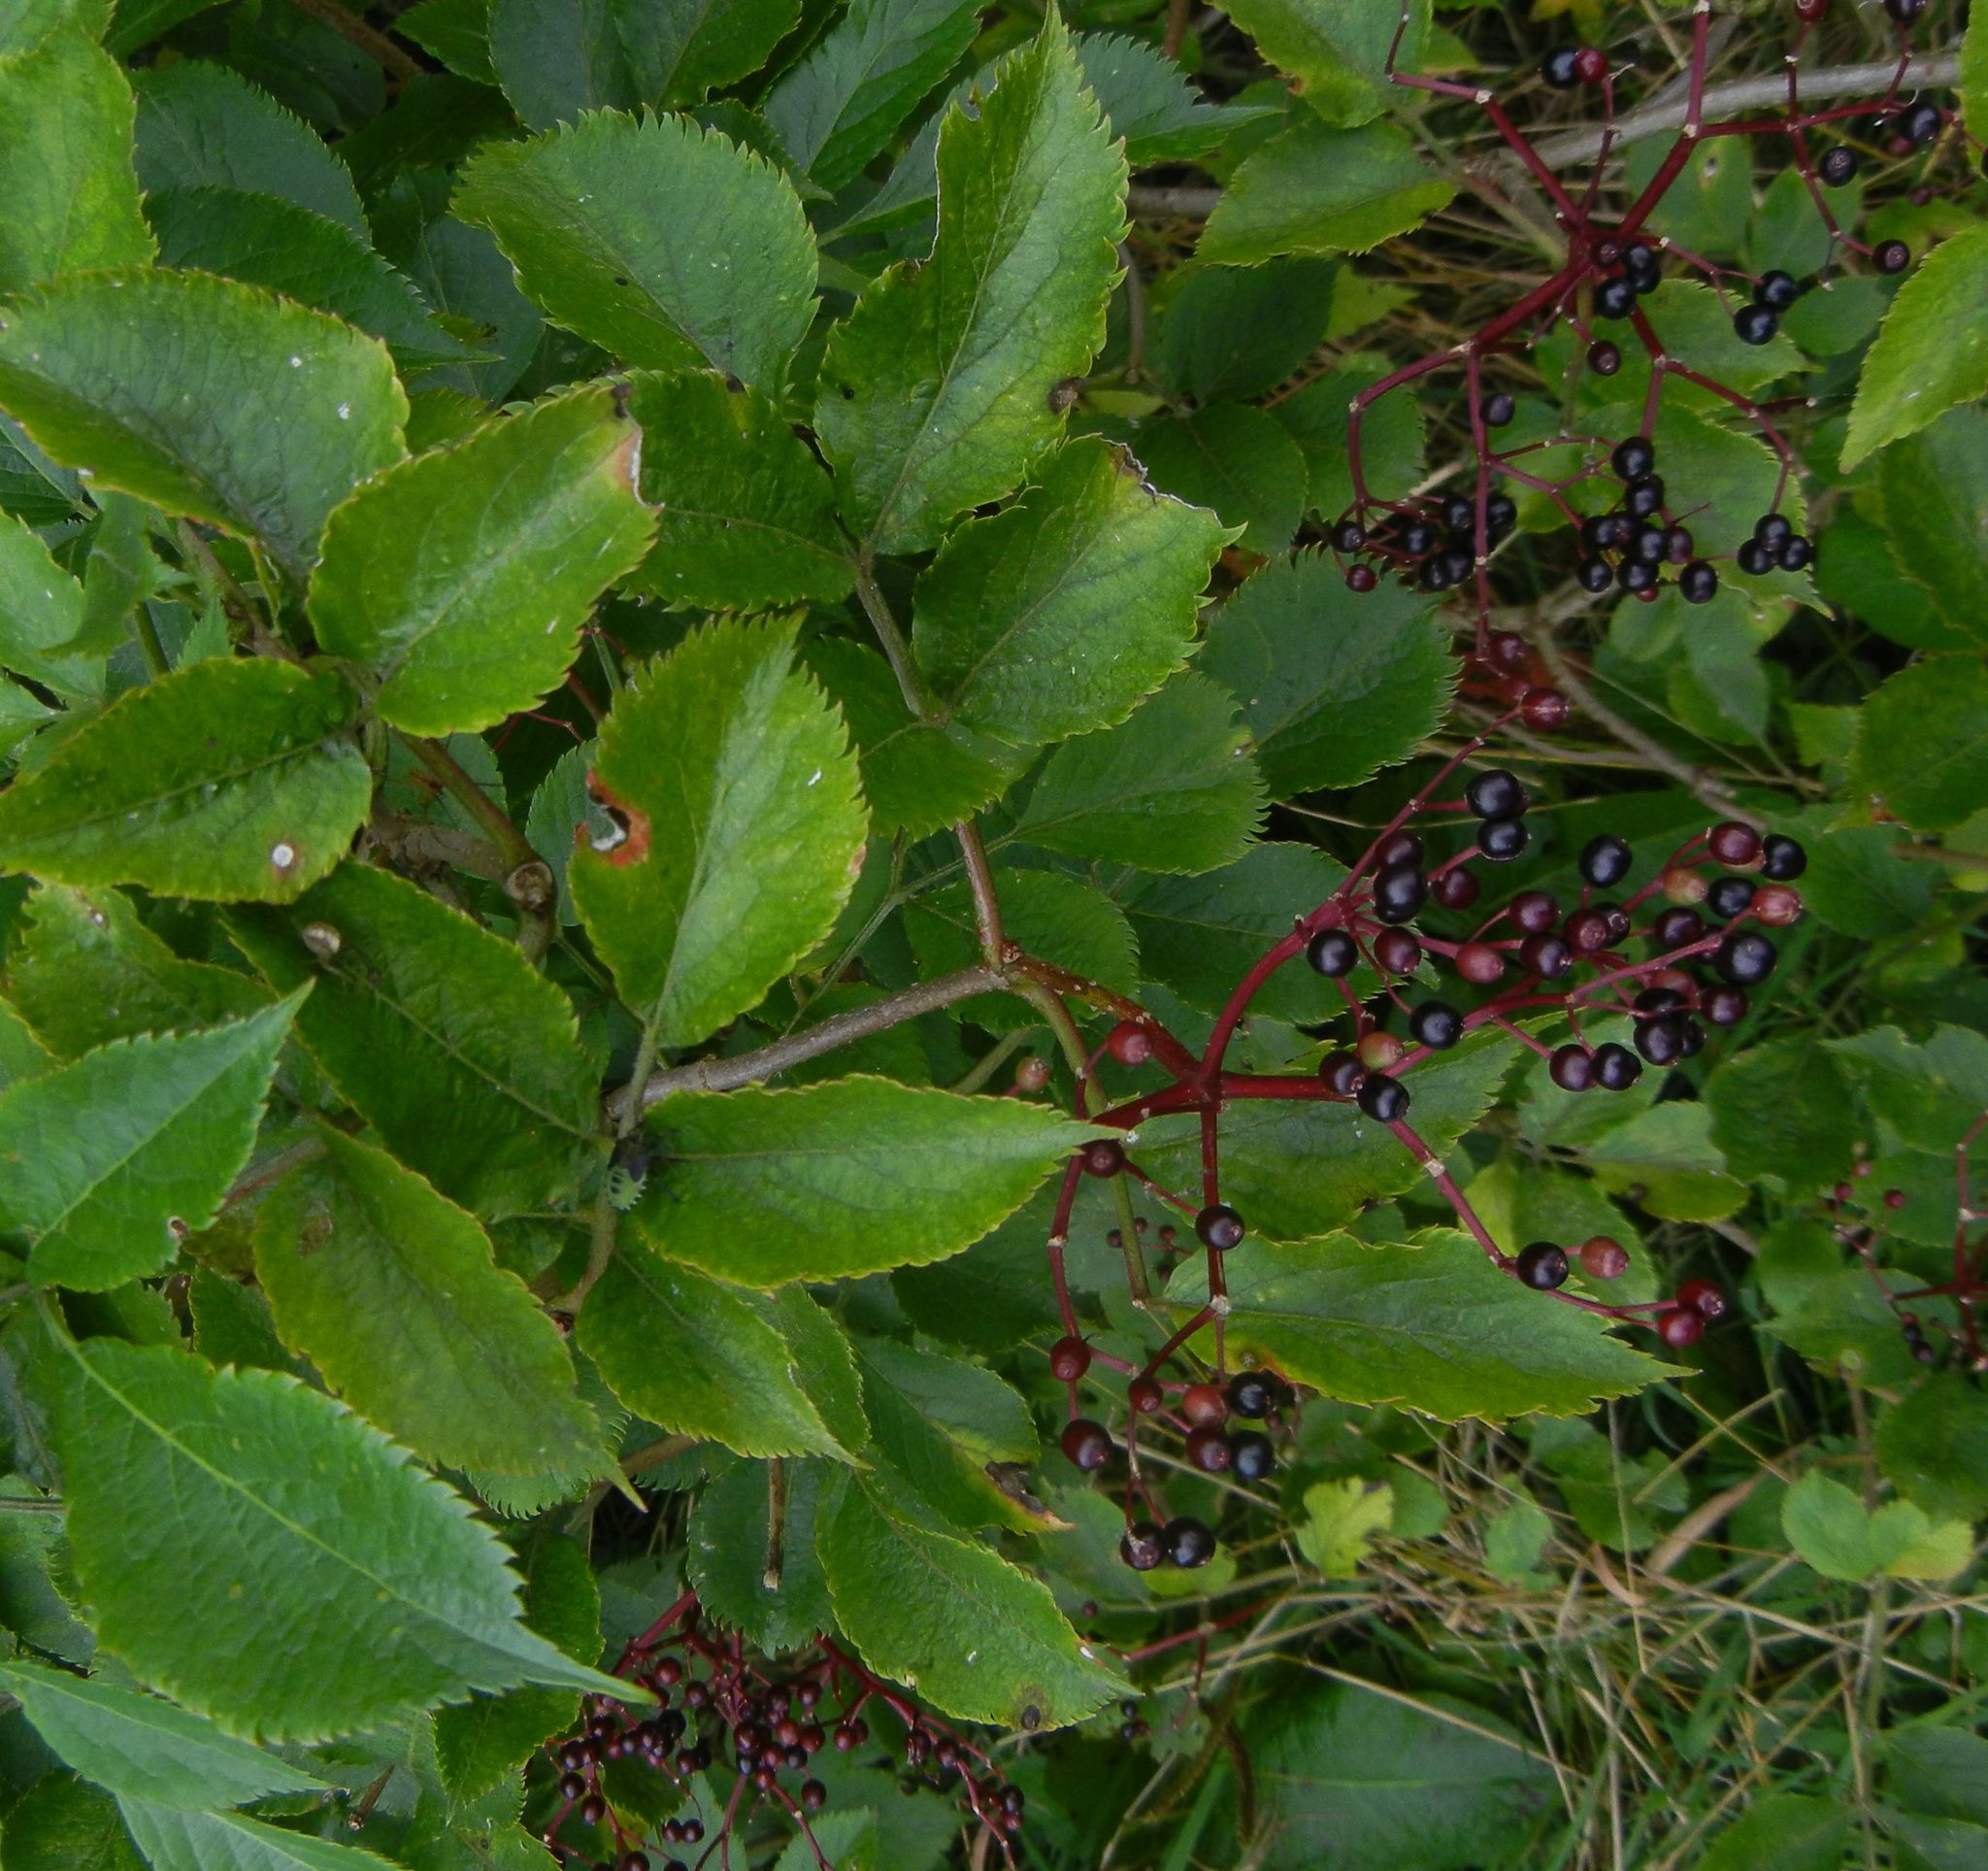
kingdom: Plantae
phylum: Tracheophyta
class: Magnoliopsida
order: Dipsacales
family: Viburnaceae
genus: Sambucus
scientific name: Sambucus nigra
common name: Elder
